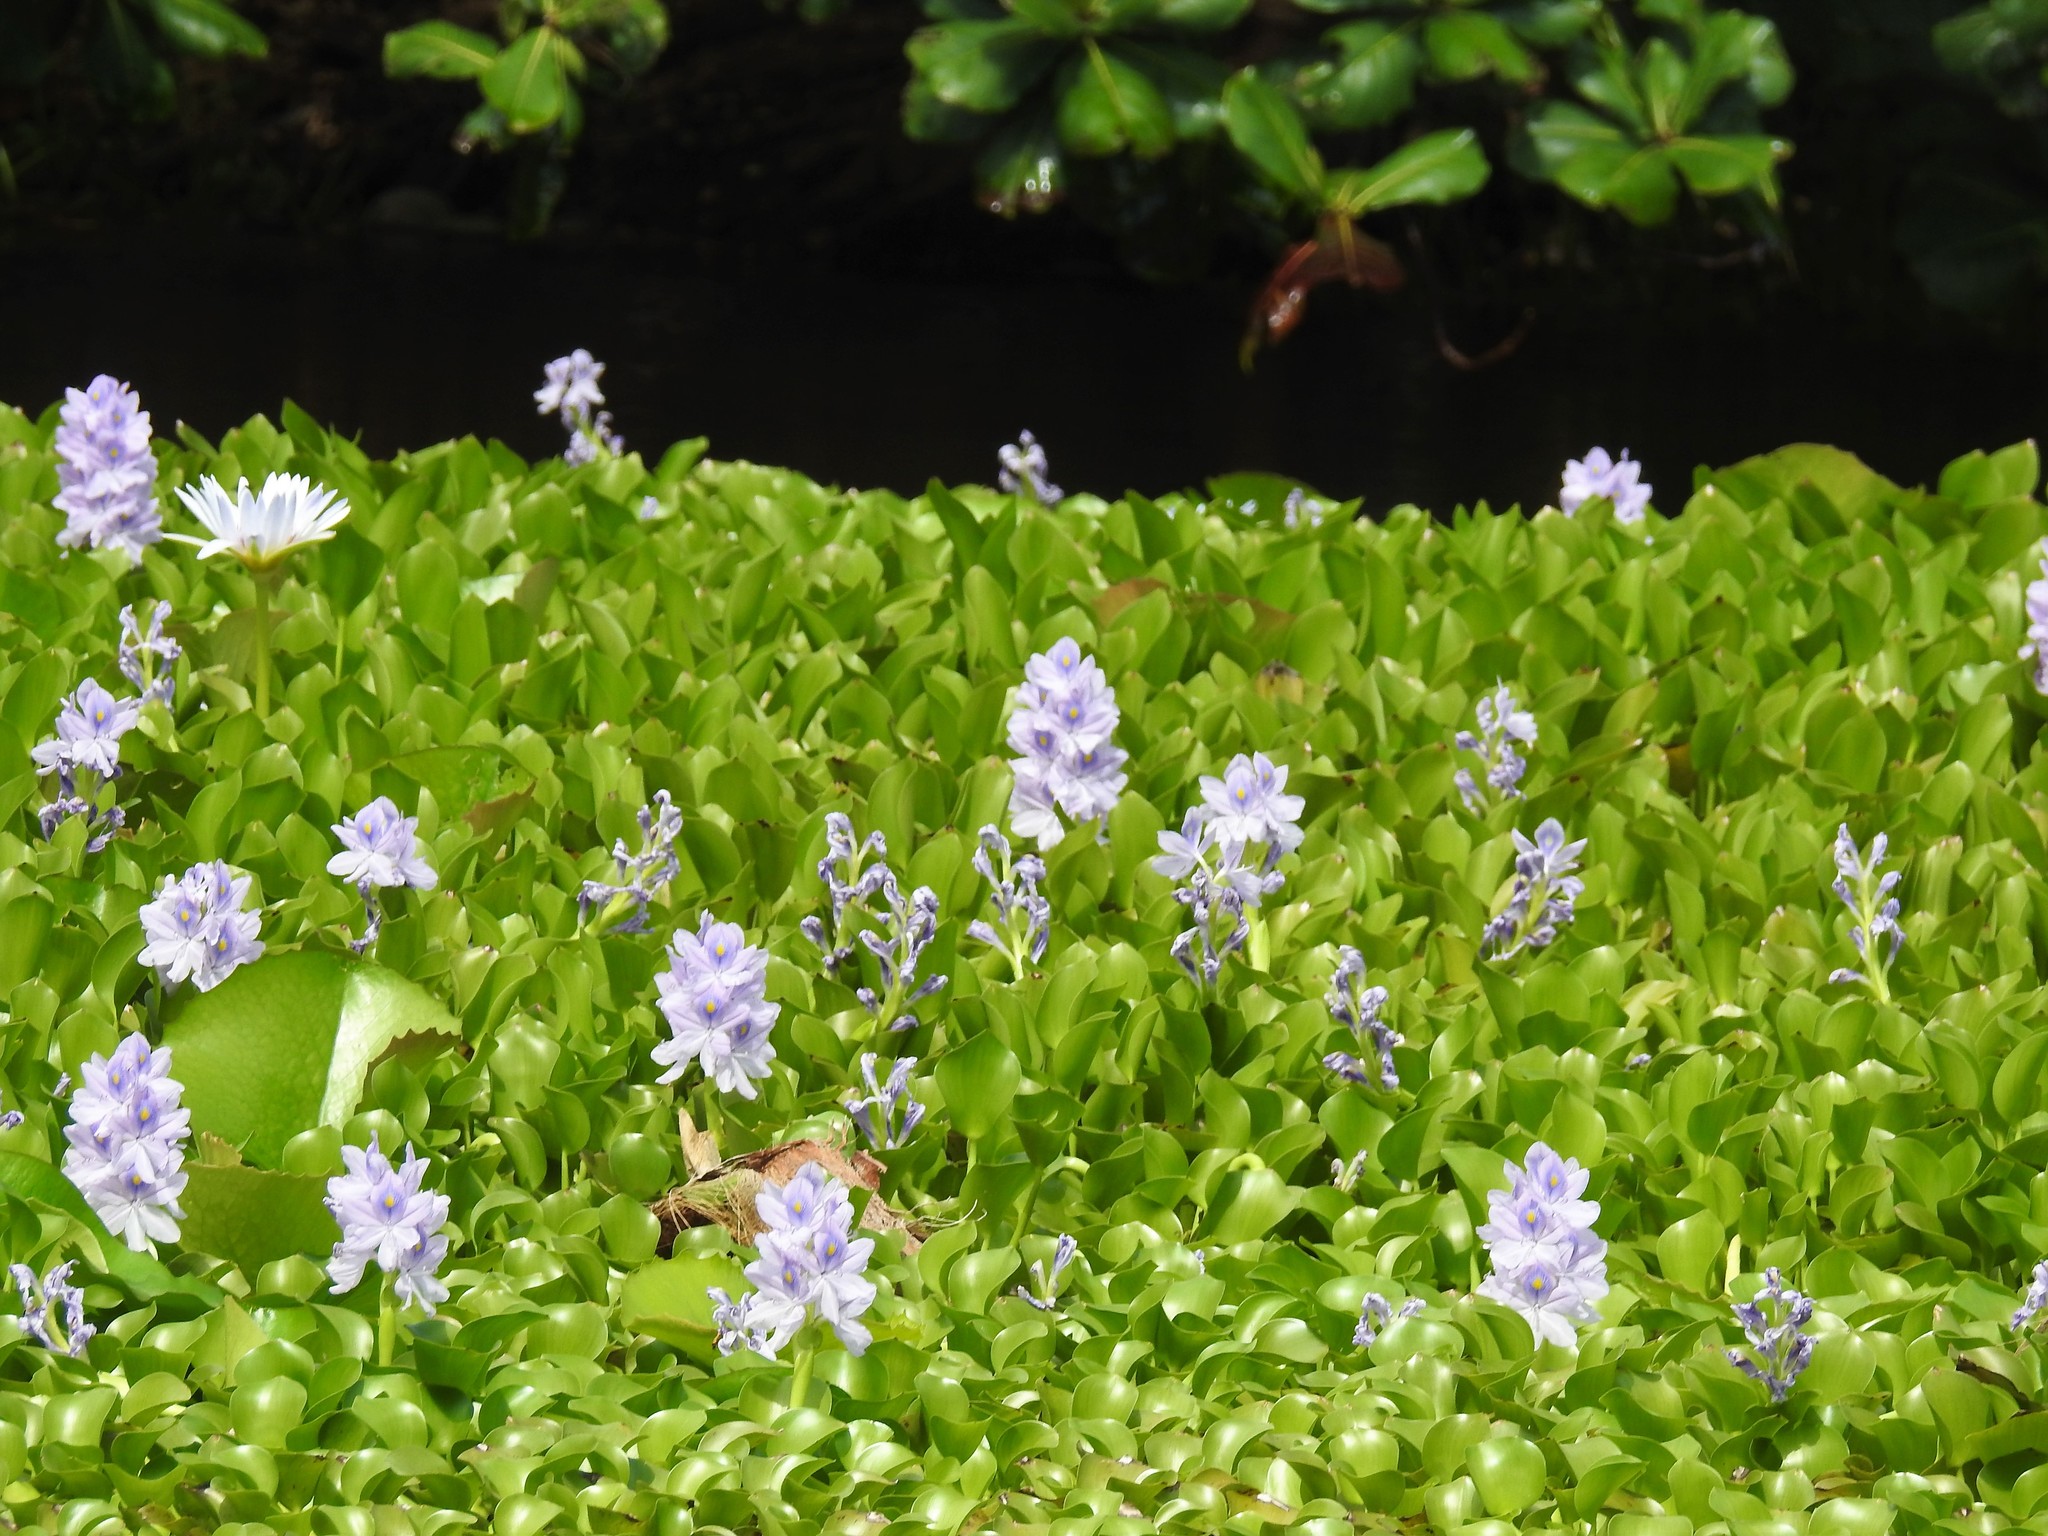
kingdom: Plantae
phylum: Tracheophyta
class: Liliopsida
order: Commelinales
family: Pontederiaceae
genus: Pontederia
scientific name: Pontederia crassipes
